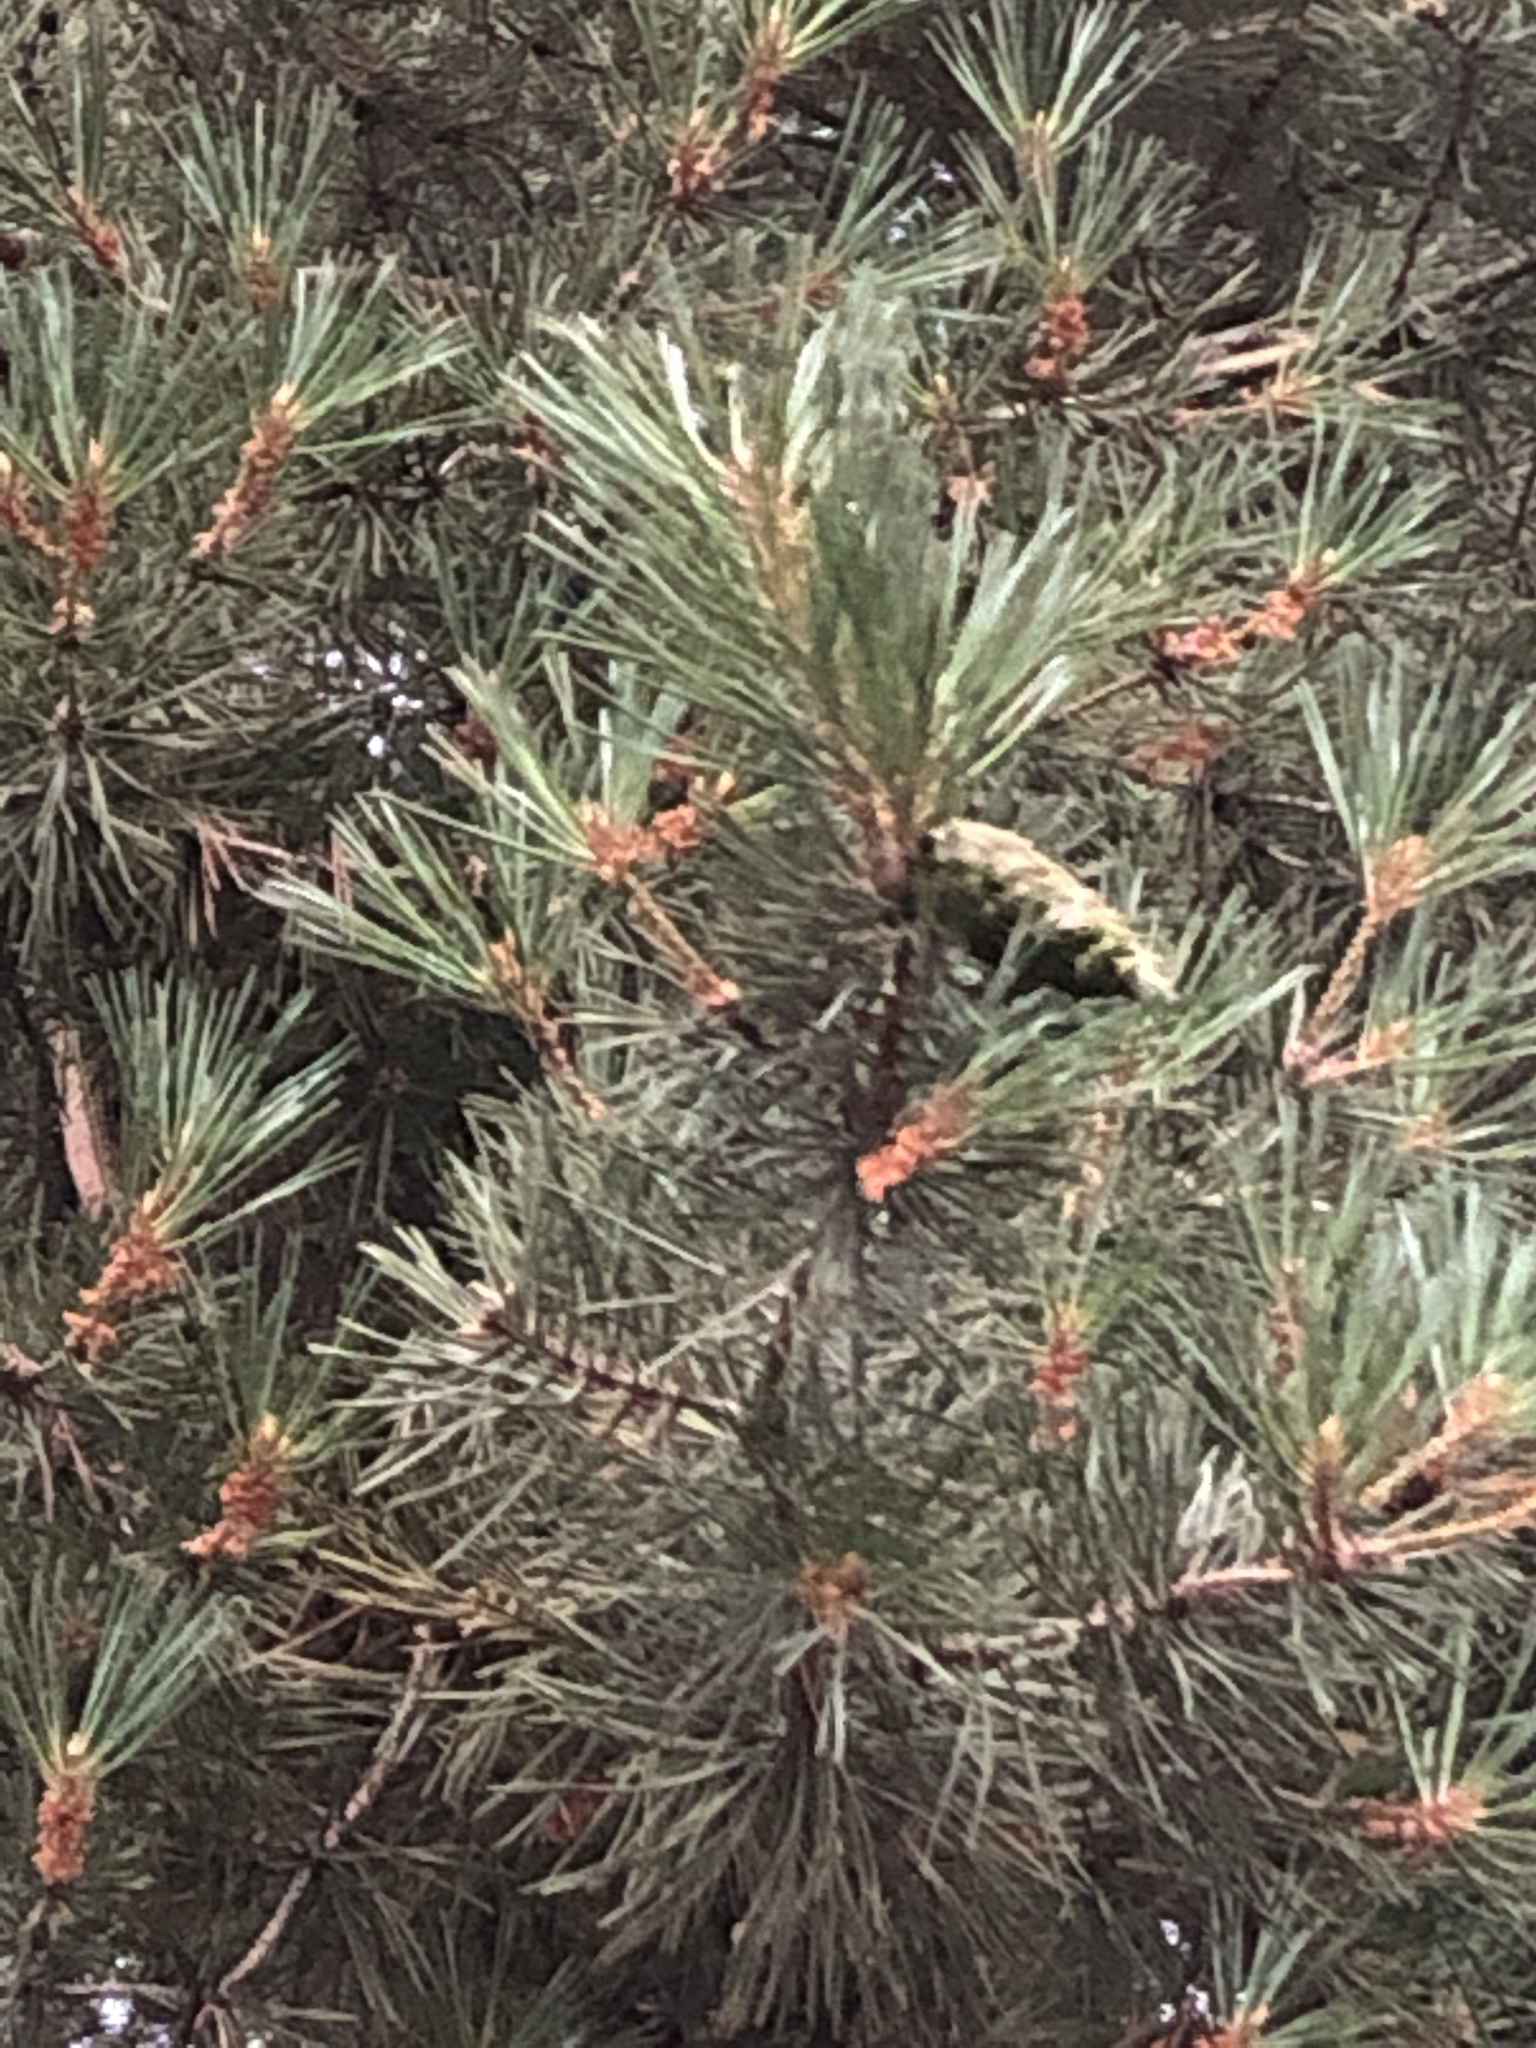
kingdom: Plantae
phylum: Tracheophyta
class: Pinopsida
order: Pinales
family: Pinaceae
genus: Pinus
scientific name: Pinus contorta
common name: Lodgepole pine
